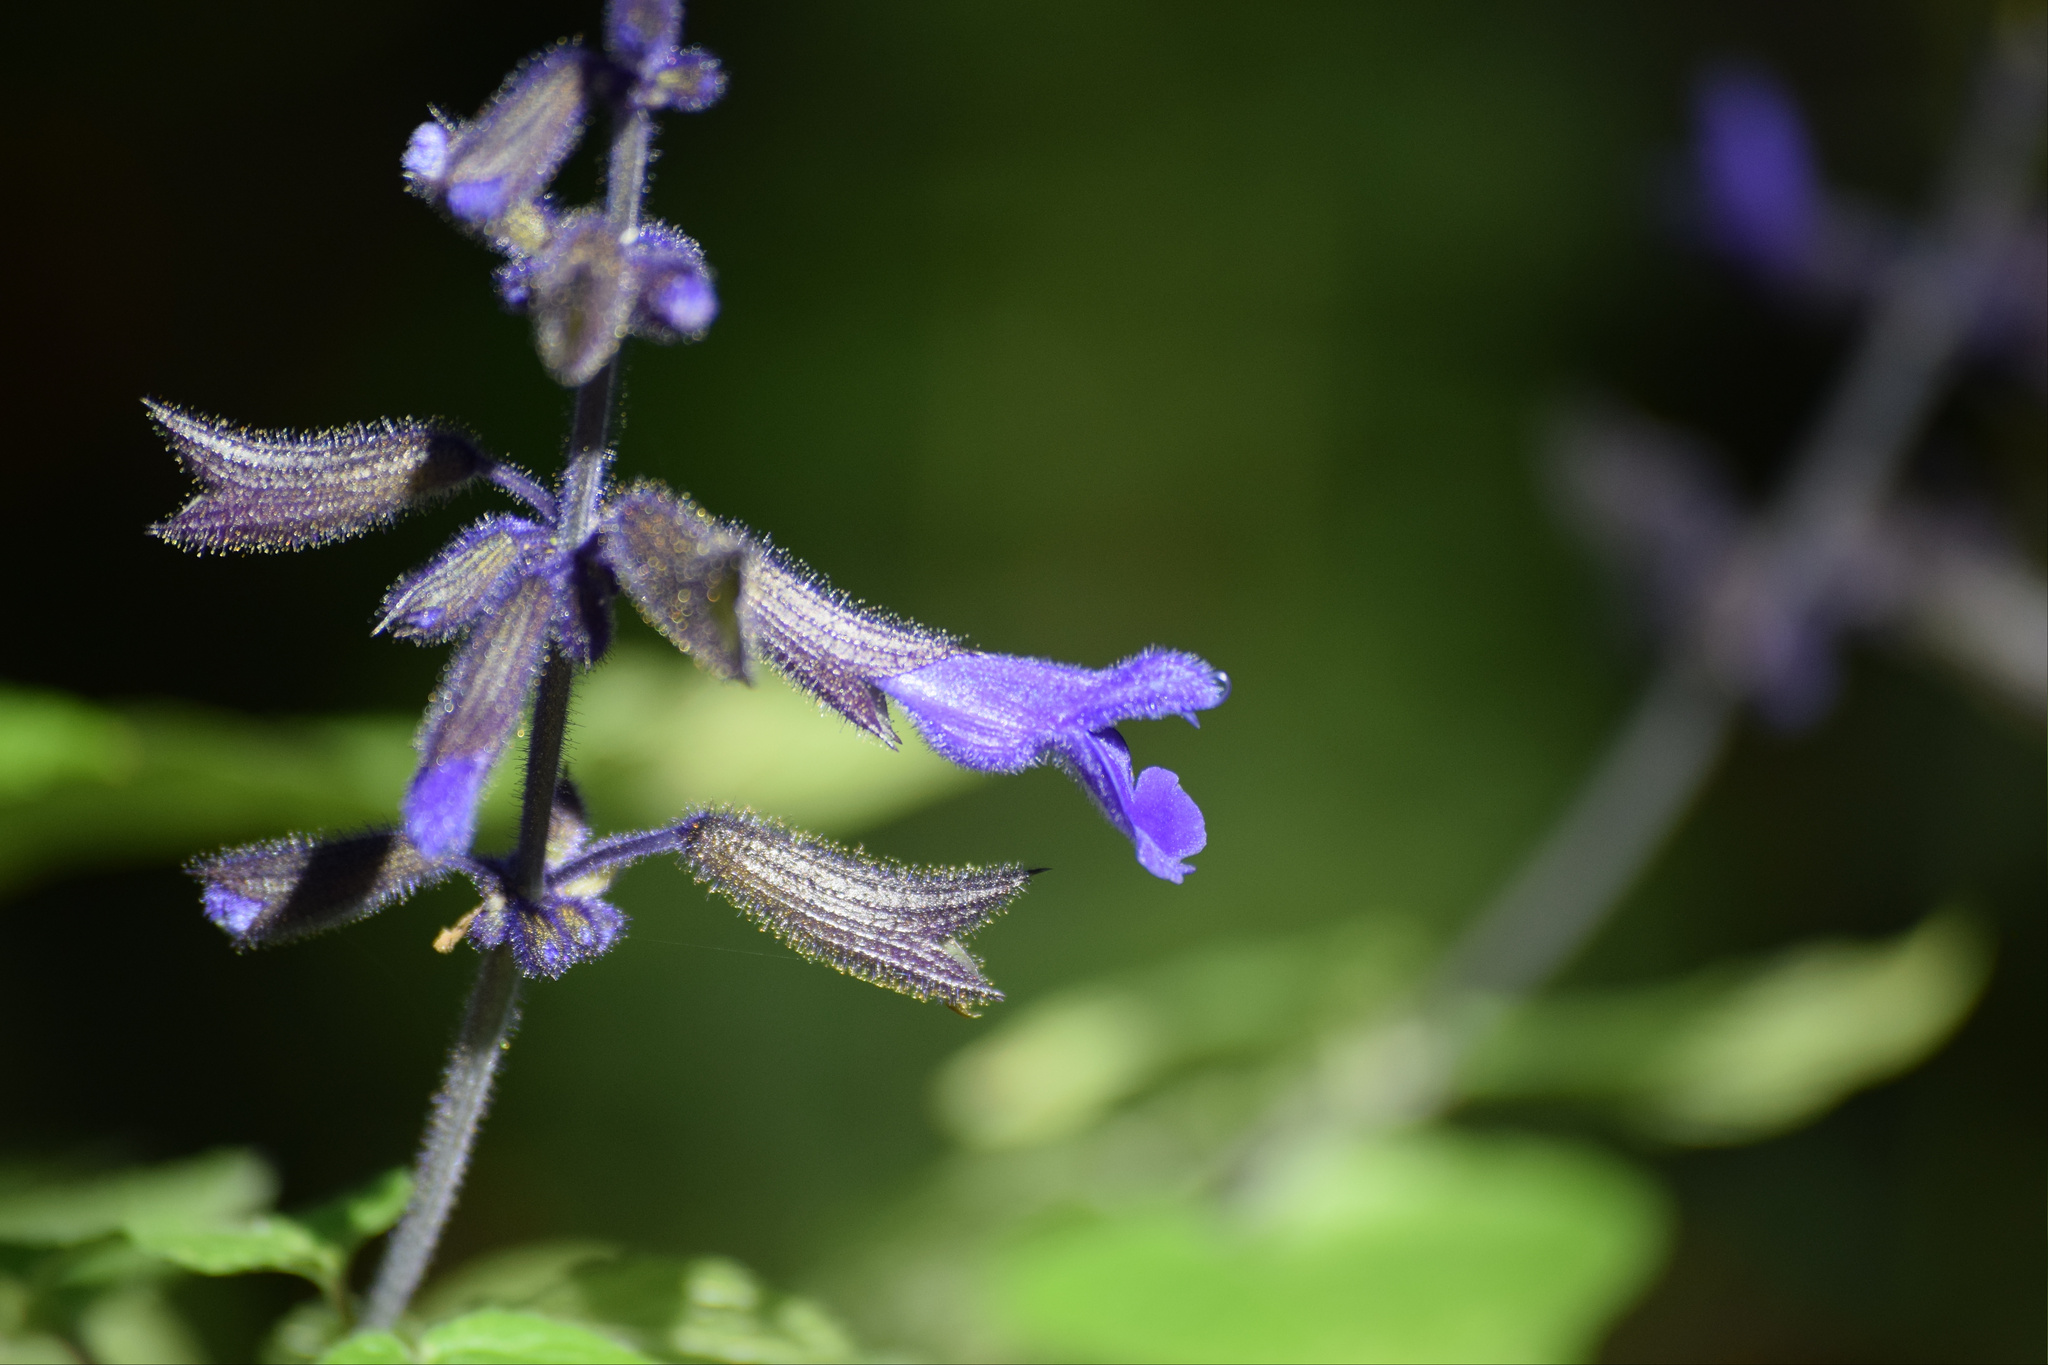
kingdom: Plantae
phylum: Tracheophyta
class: Magnoliopsida
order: Lamiales
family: Lamiaceae
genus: Salvia
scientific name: Salvia concolor
